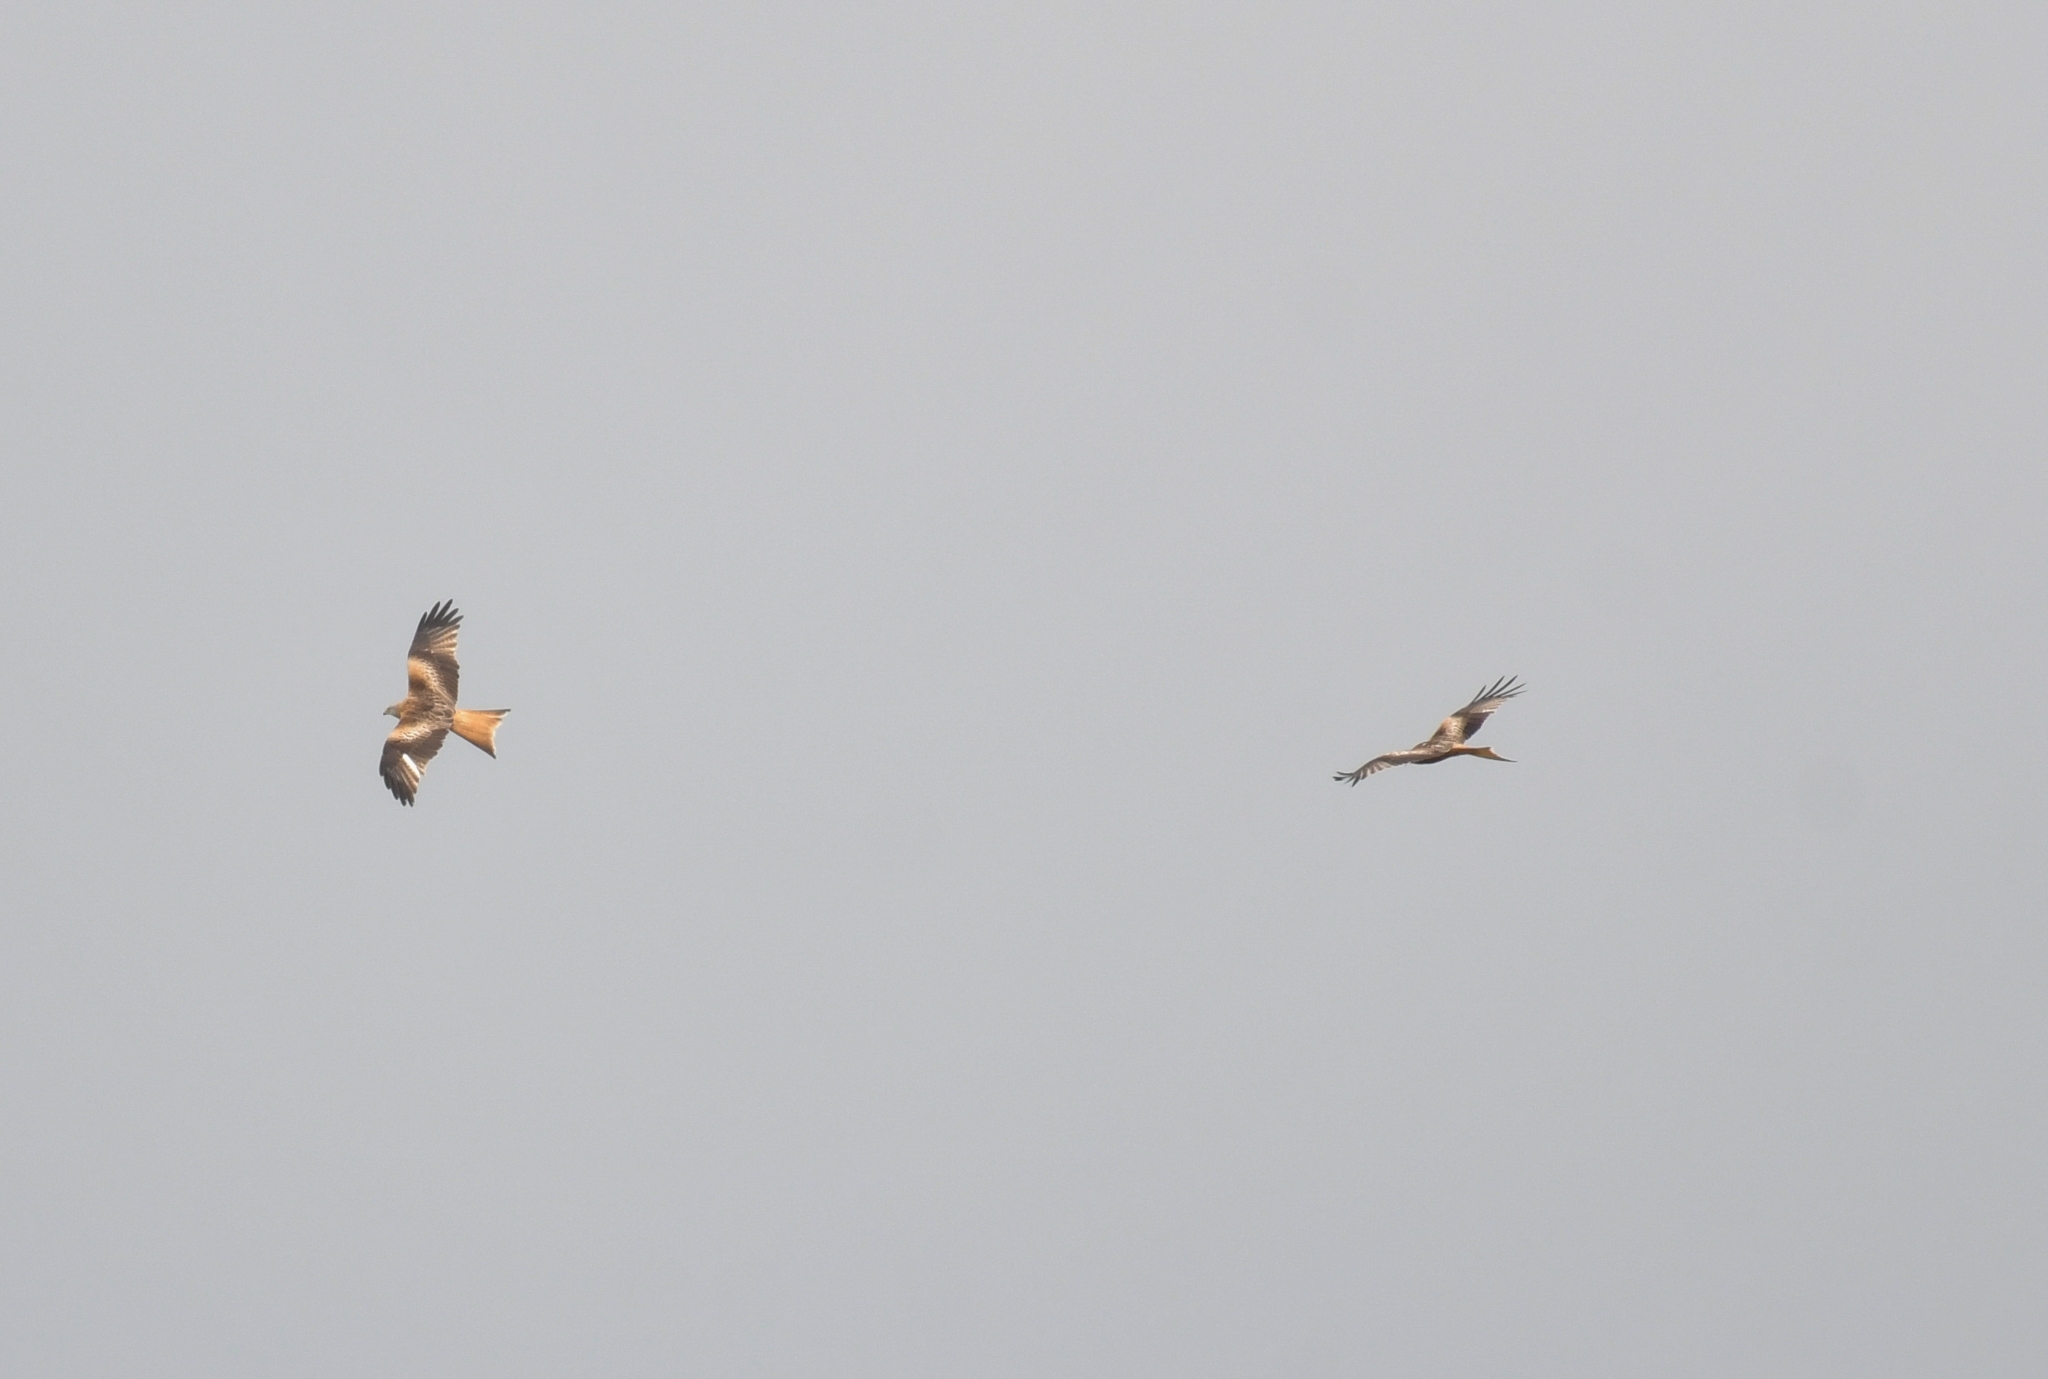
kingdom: Animalia
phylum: Chordata
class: Aves
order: Accipitriformes
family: Accipitridae
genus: Milvus
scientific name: Milvus milvus
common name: Red kite
